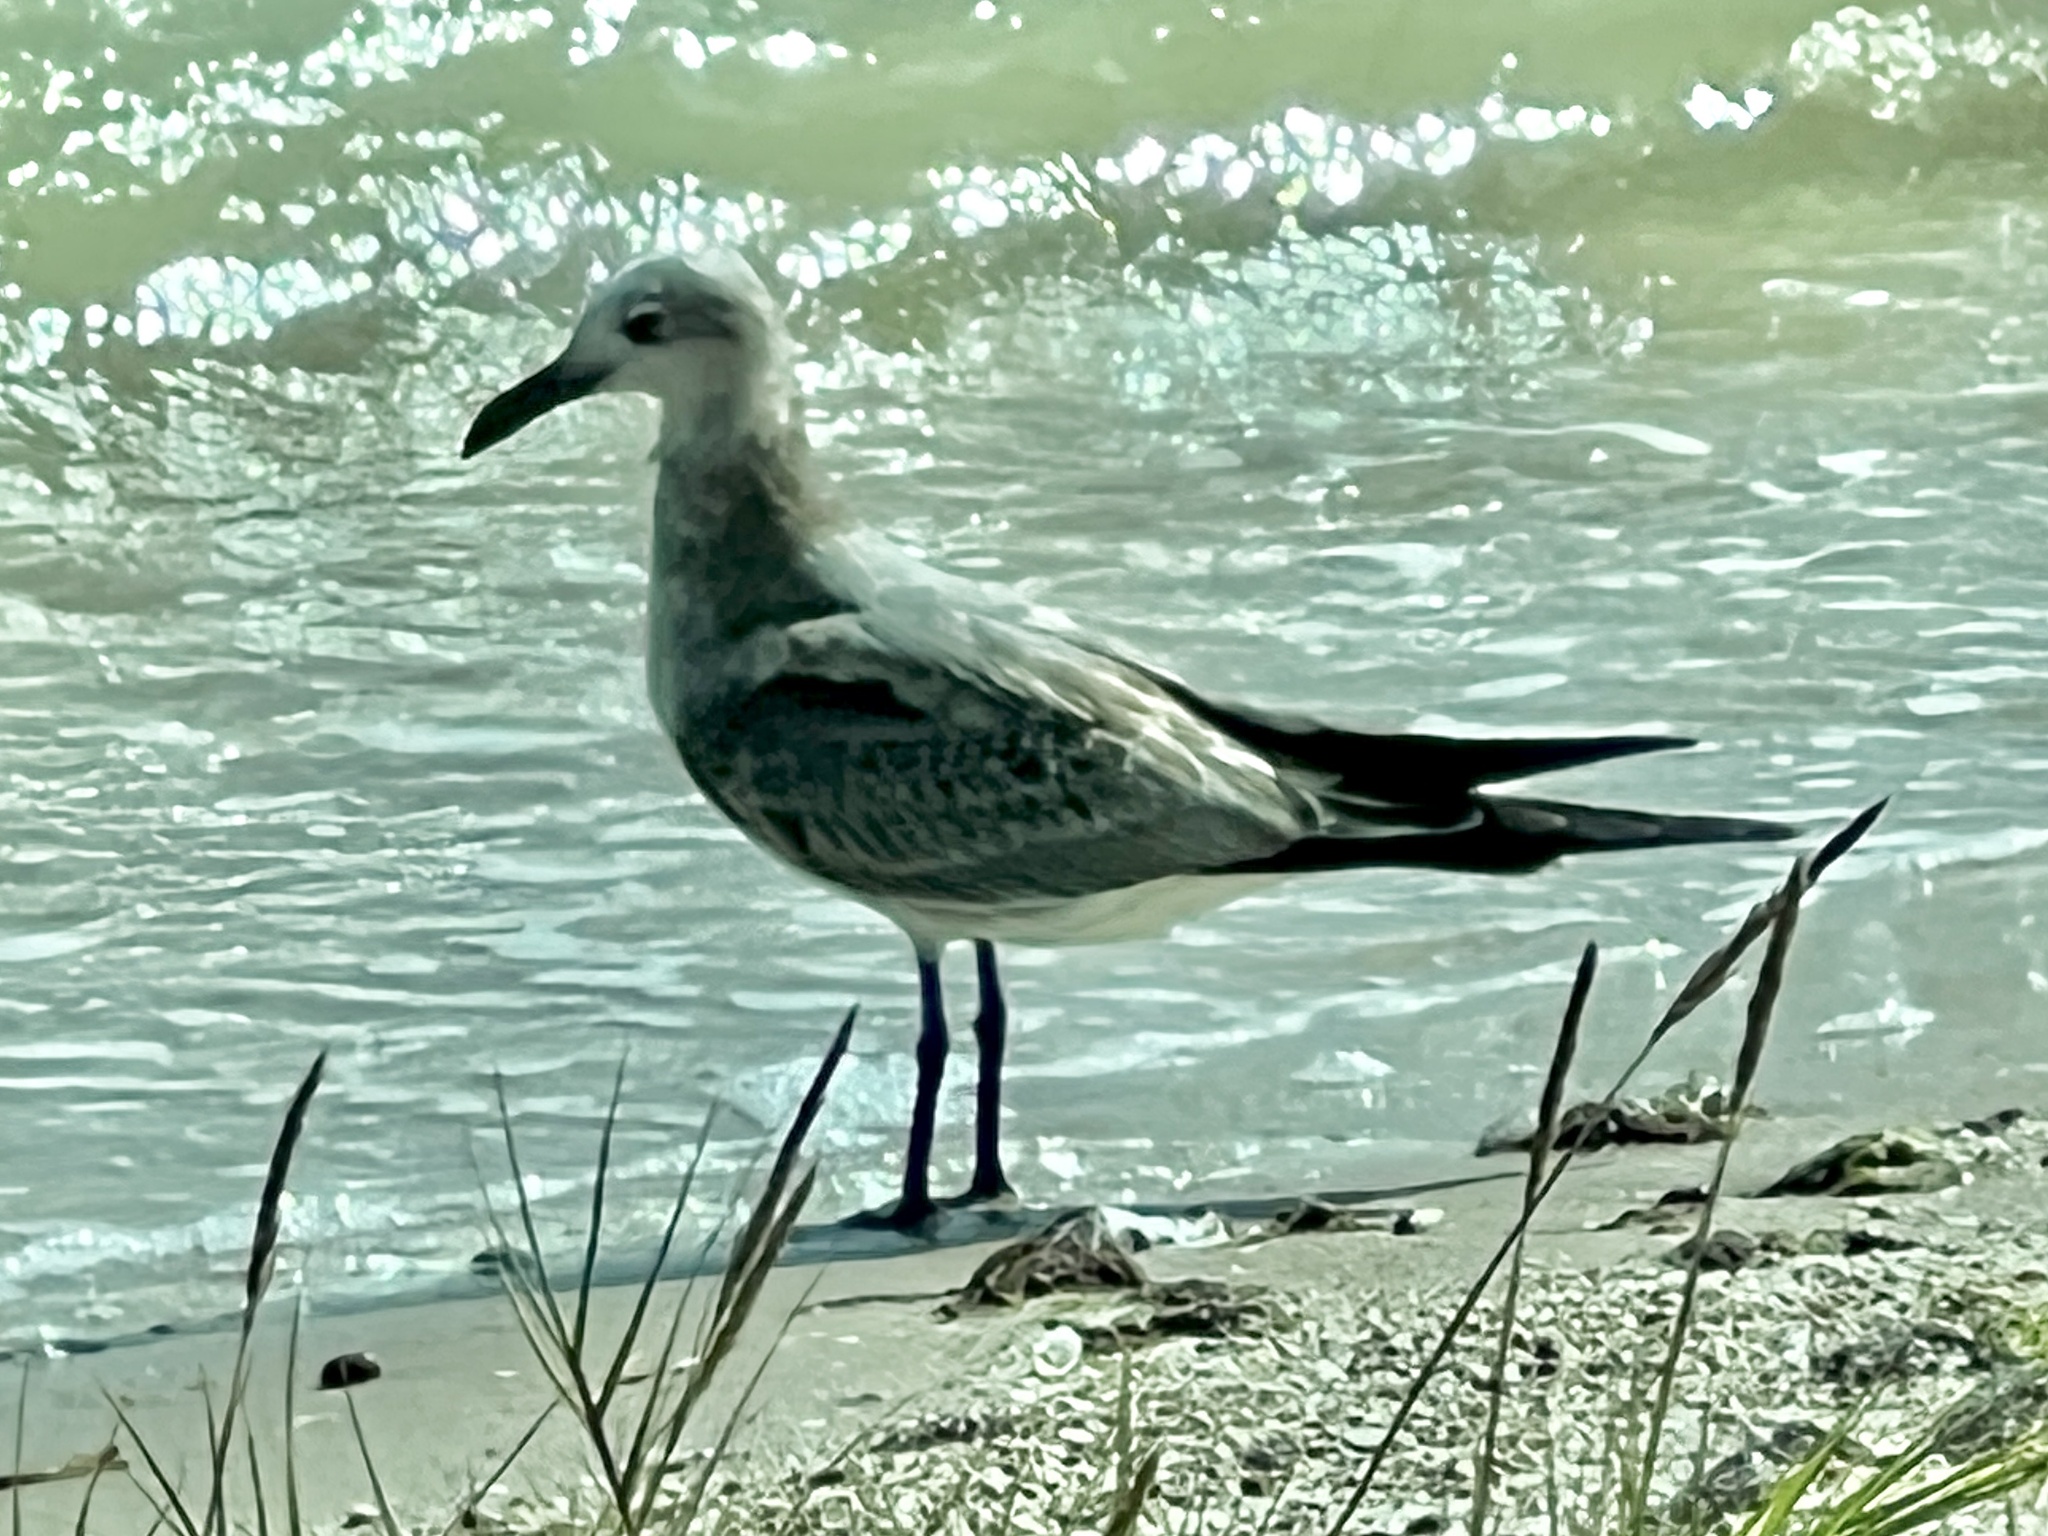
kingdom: Animalia
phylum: Chordata
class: Aves
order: Charadriiformes
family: Laridae
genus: Leucophaeus
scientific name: Leucophaeus atricilla
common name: Laughing gull
